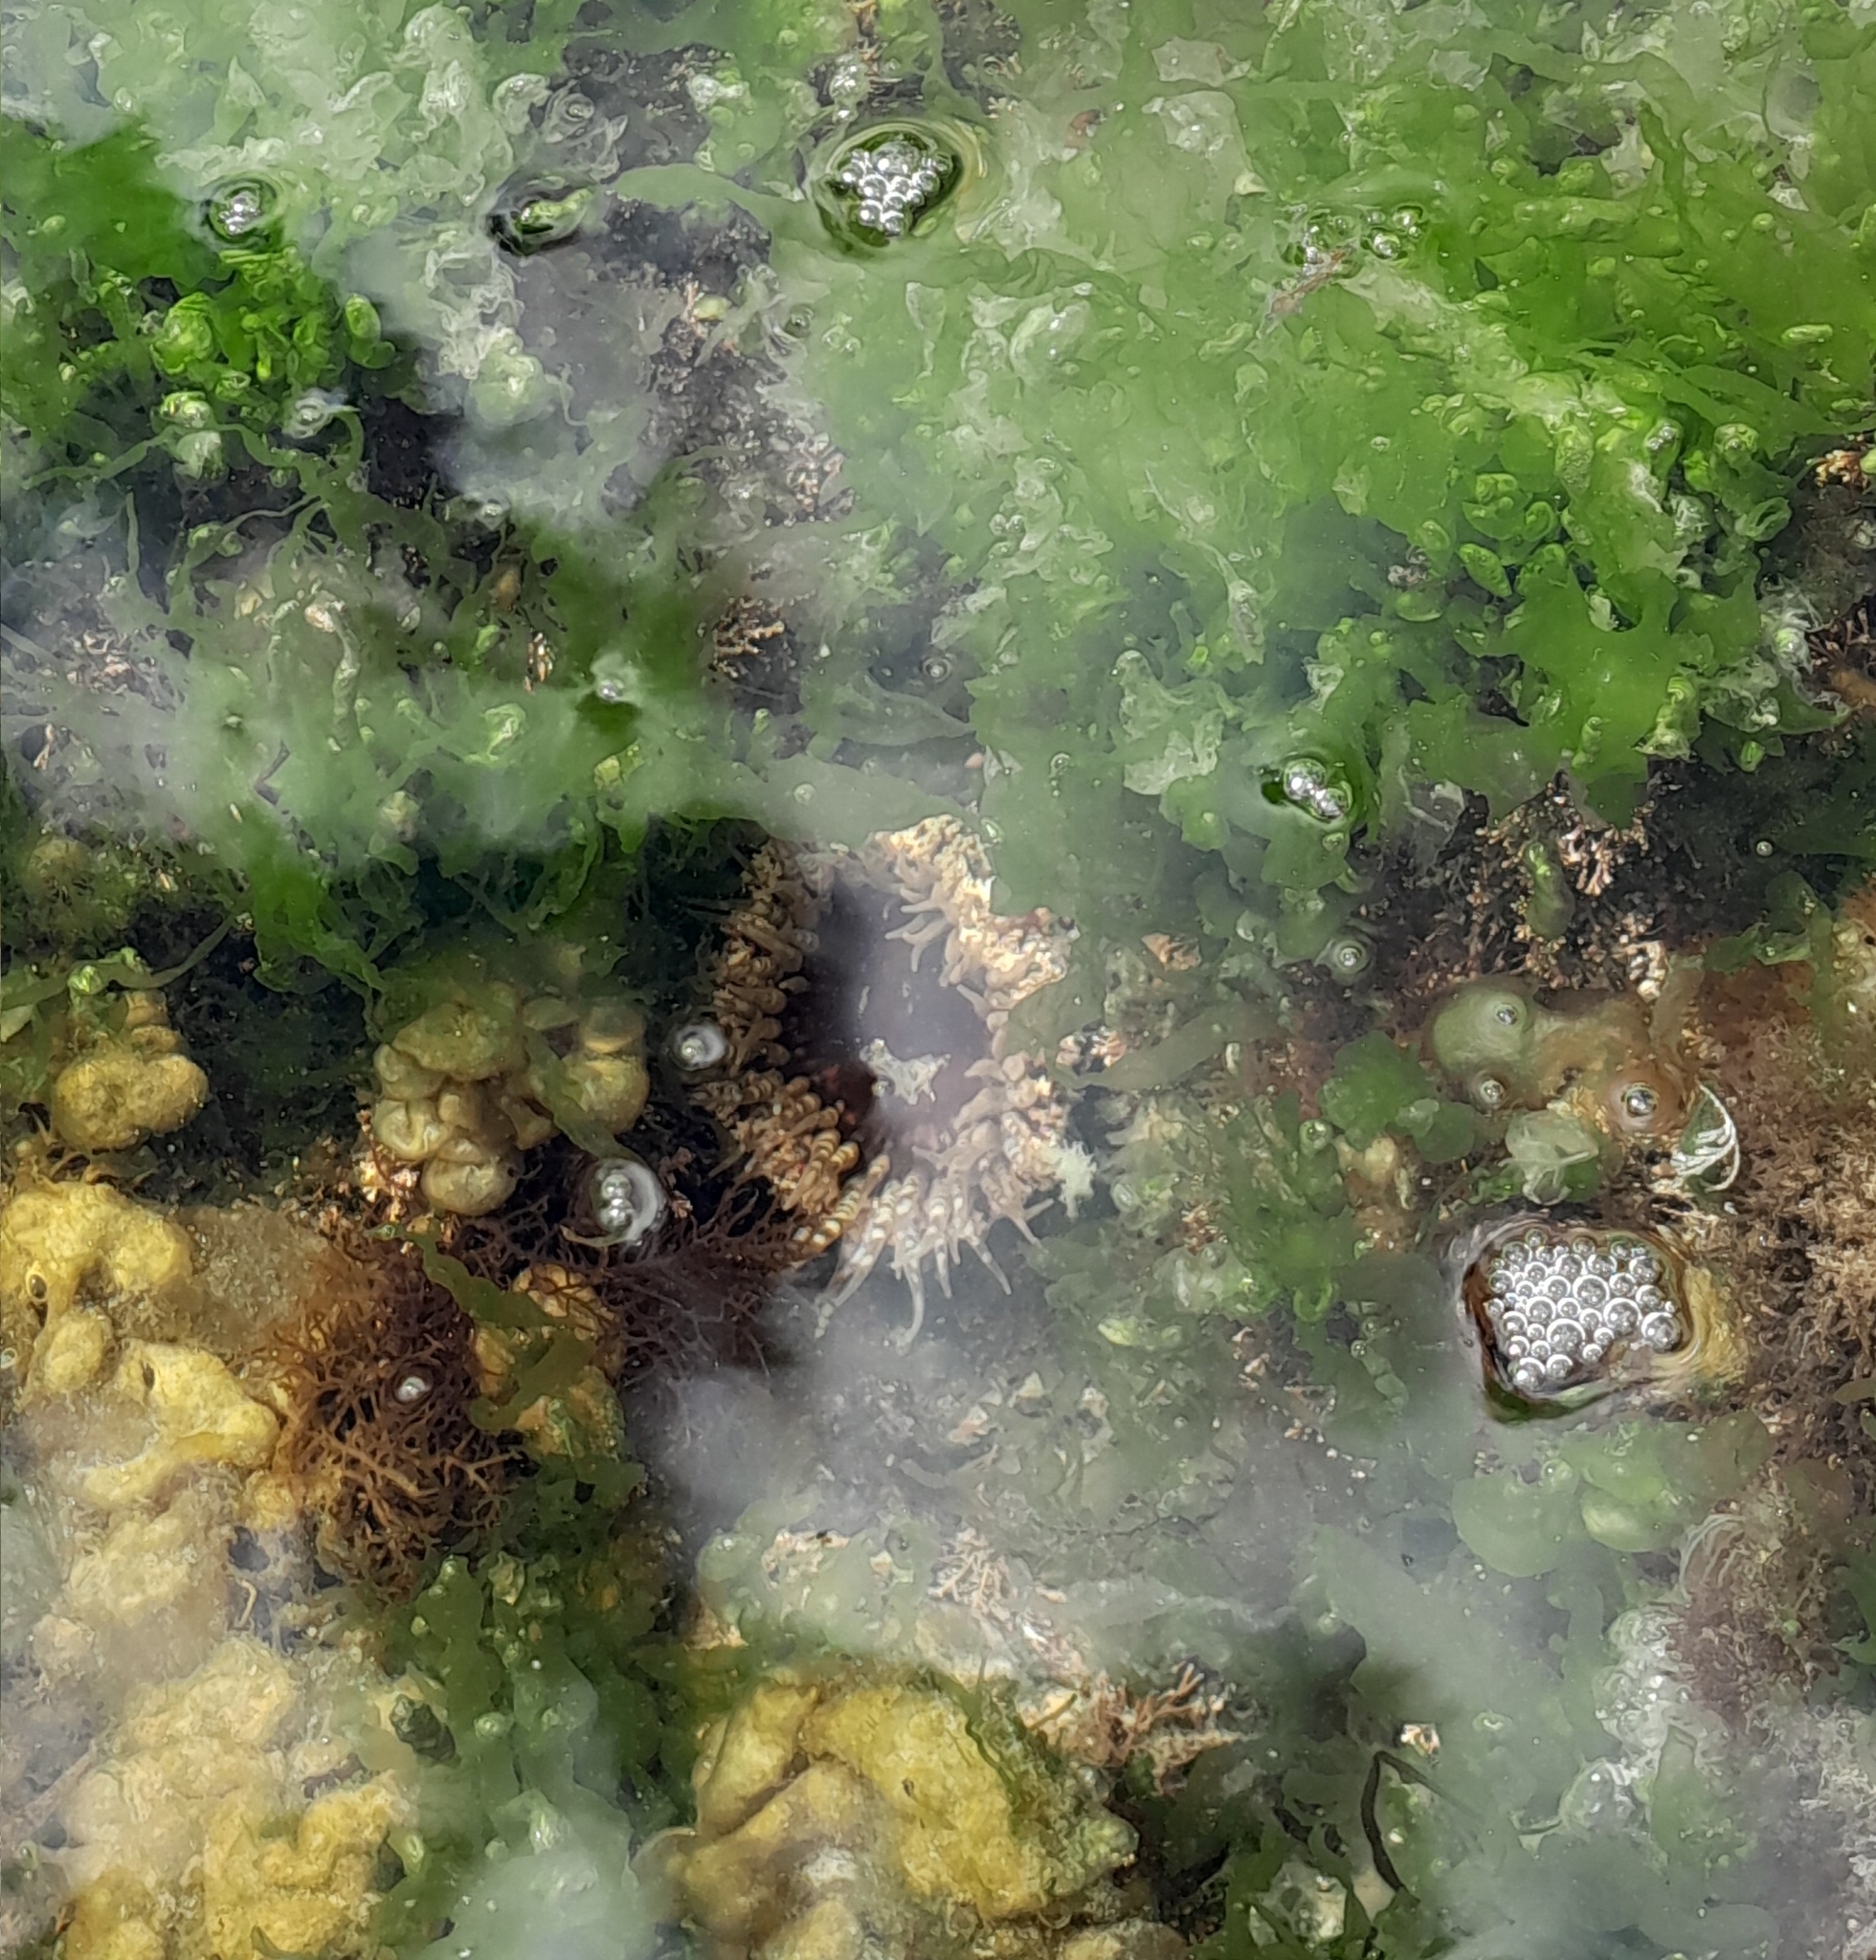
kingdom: Animalia
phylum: Cnidaria
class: Anthozoa
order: Actiniaria
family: Actiniidae
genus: Oulactis
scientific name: Oulactis muscosa
